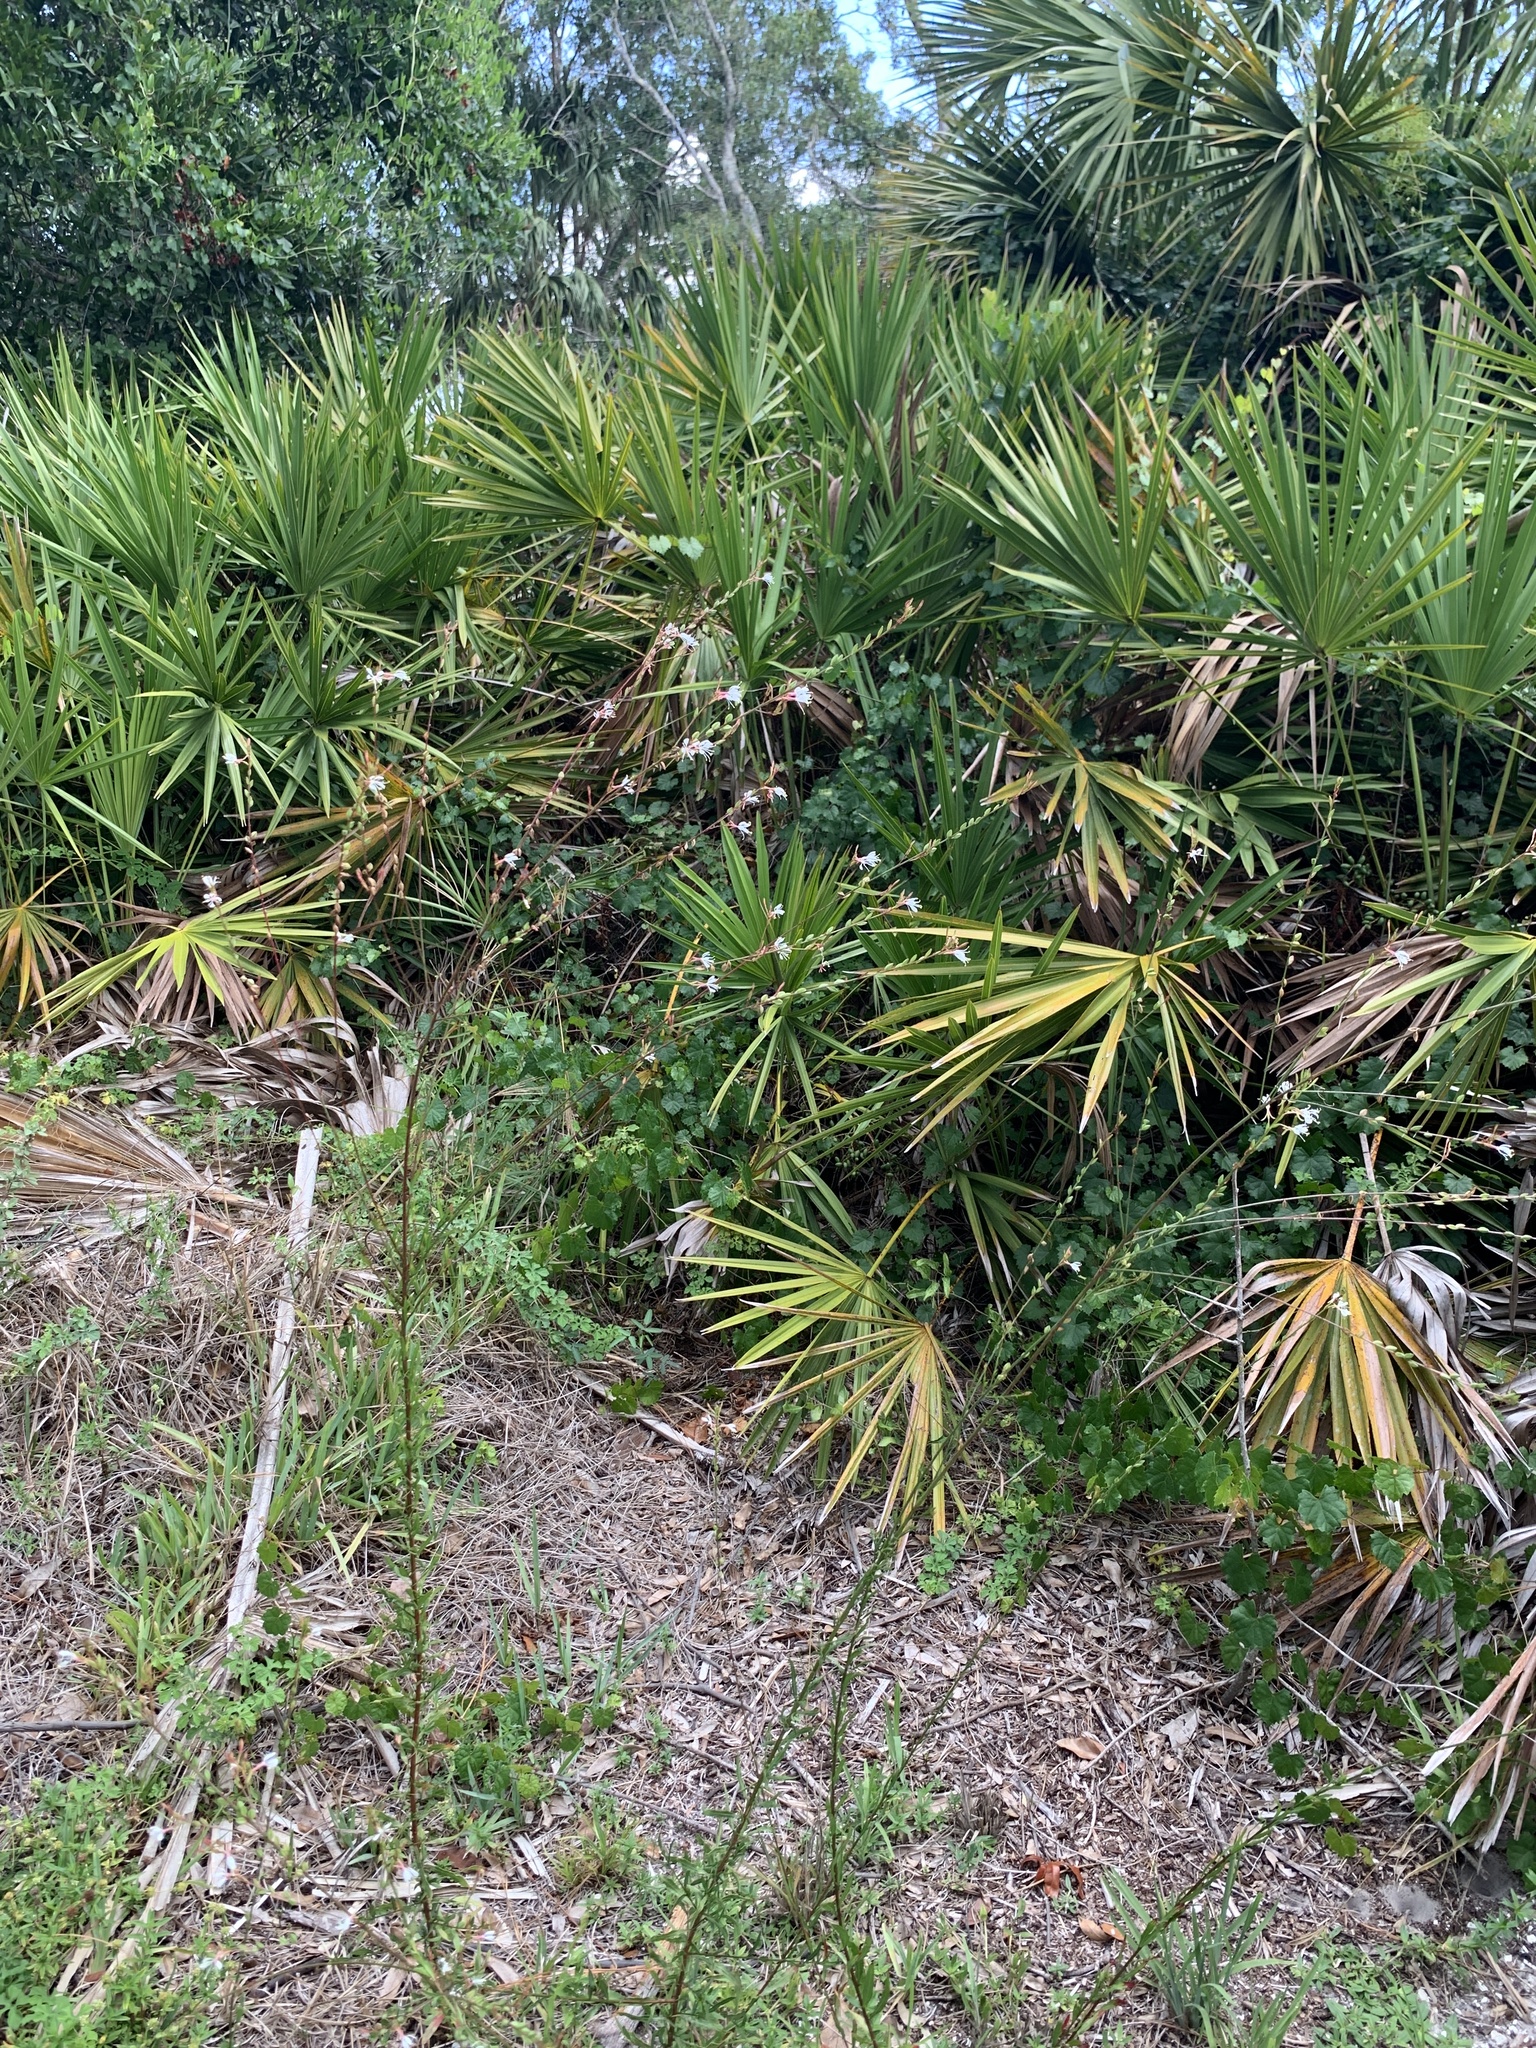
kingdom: Plantae
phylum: Tracheophyta
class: Magnoliopsida
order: Myrtales
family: Onagraceae
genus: Oenothera
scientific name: Oenothera simulans
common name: Southern beeblossom
